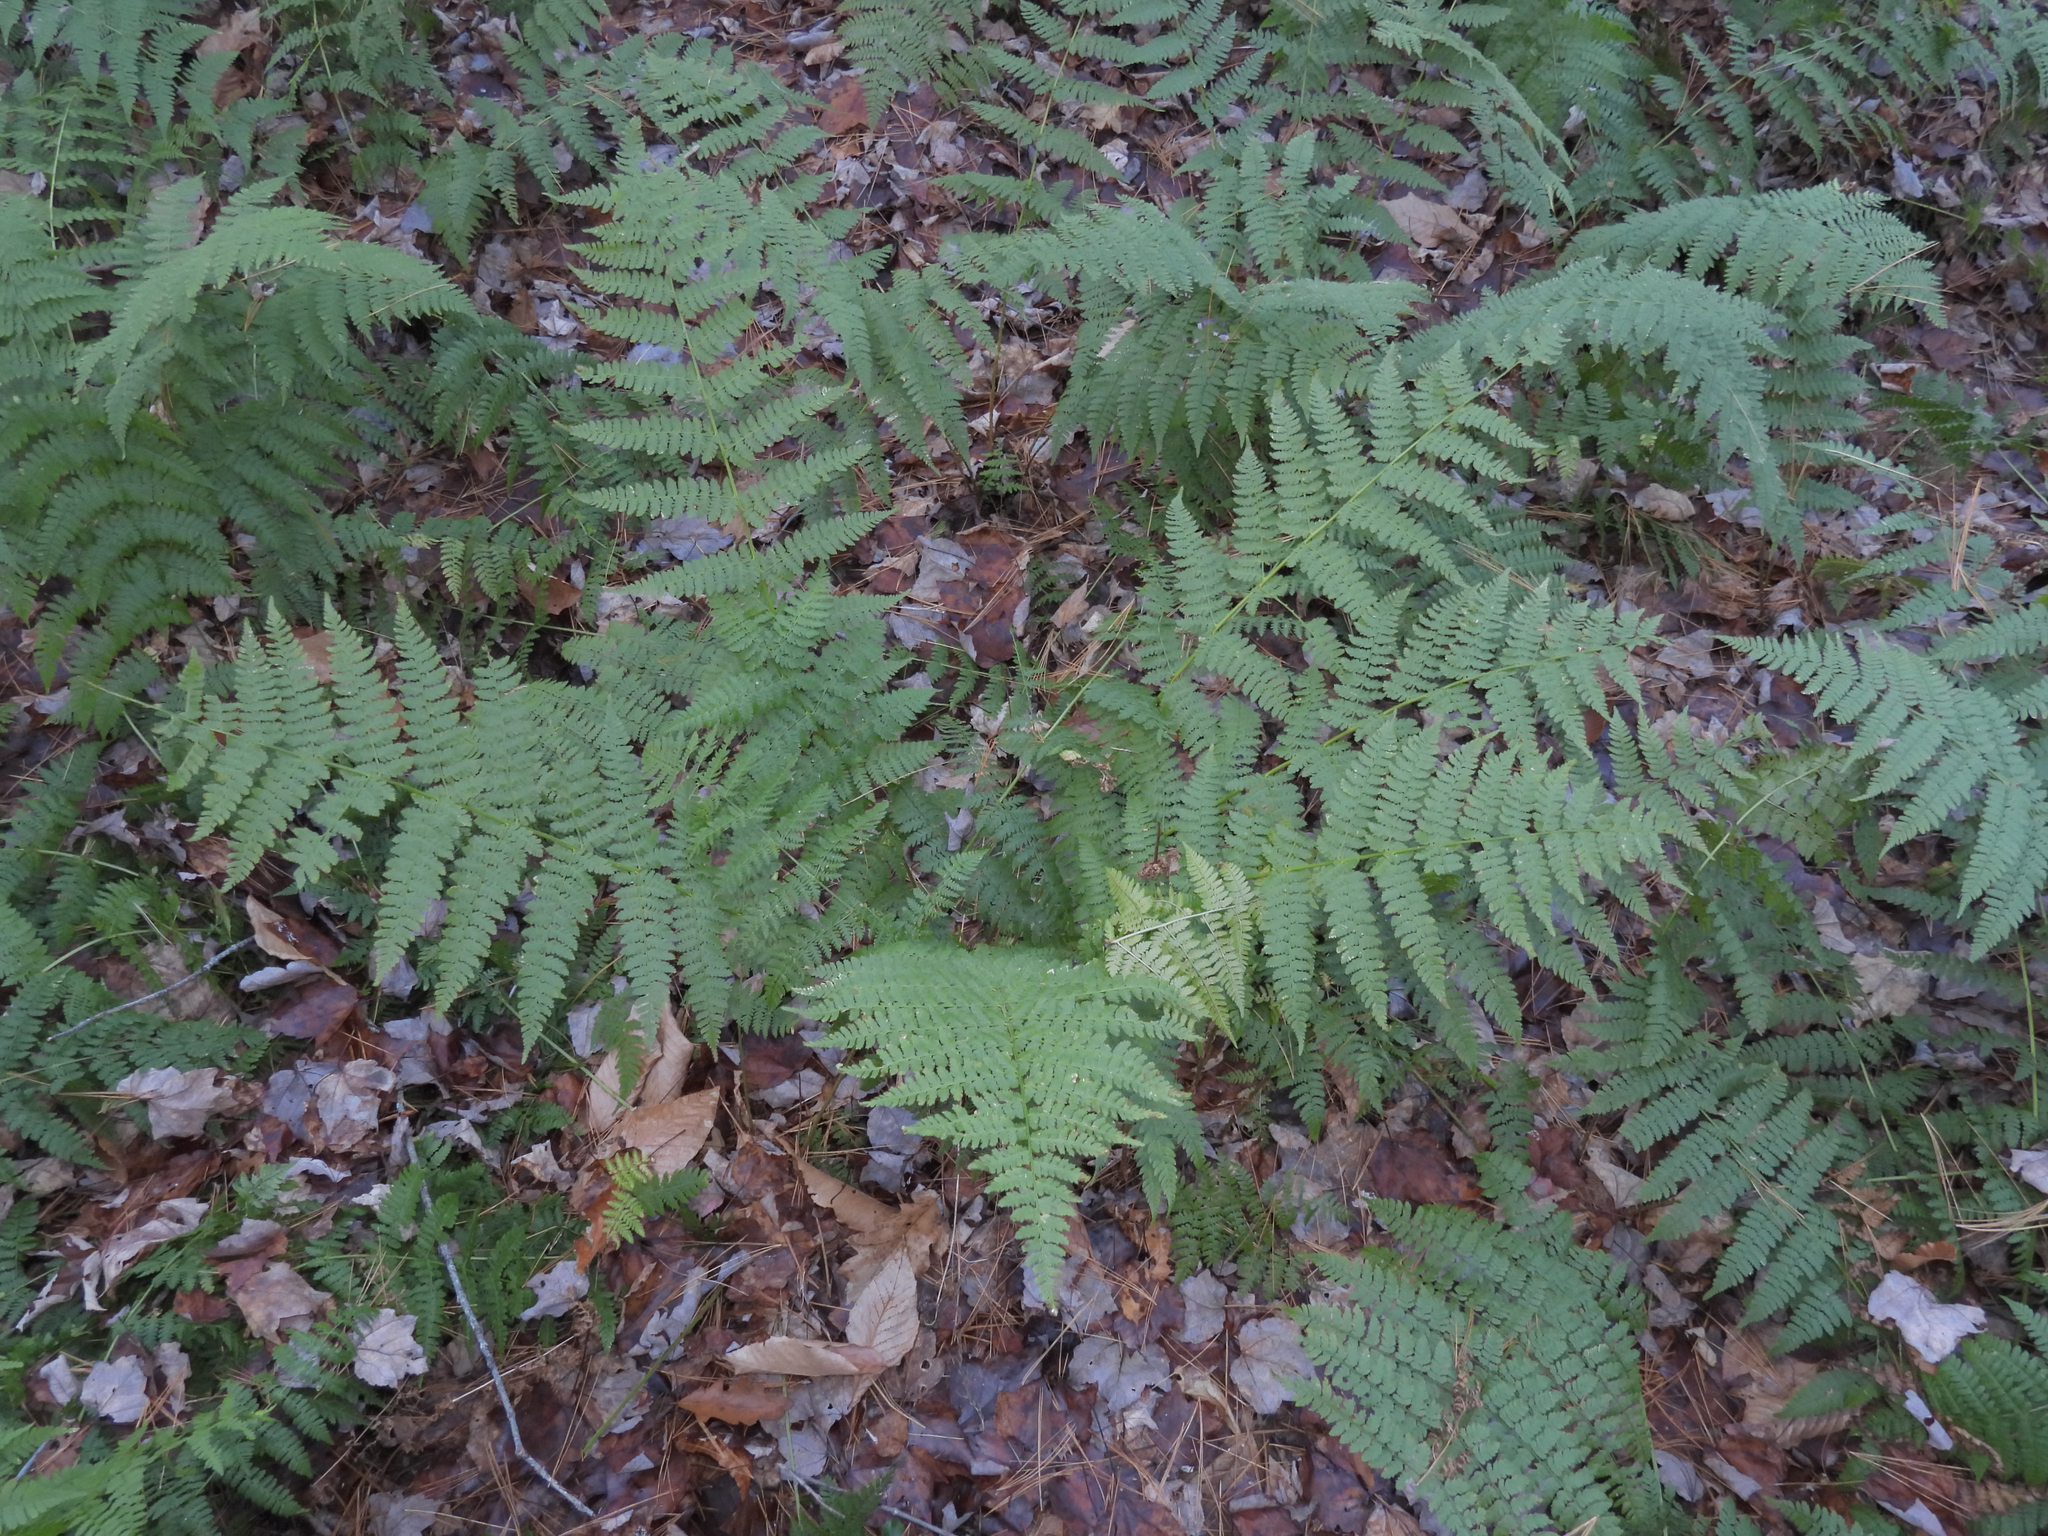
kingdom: Plantae
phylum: Tracheophyta
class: Polypodiopsida
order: Polypodiales
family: Dryopteridaceae
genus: Dryopteris
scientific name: Dryopteris intermedia
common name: Evergreen wood fern
